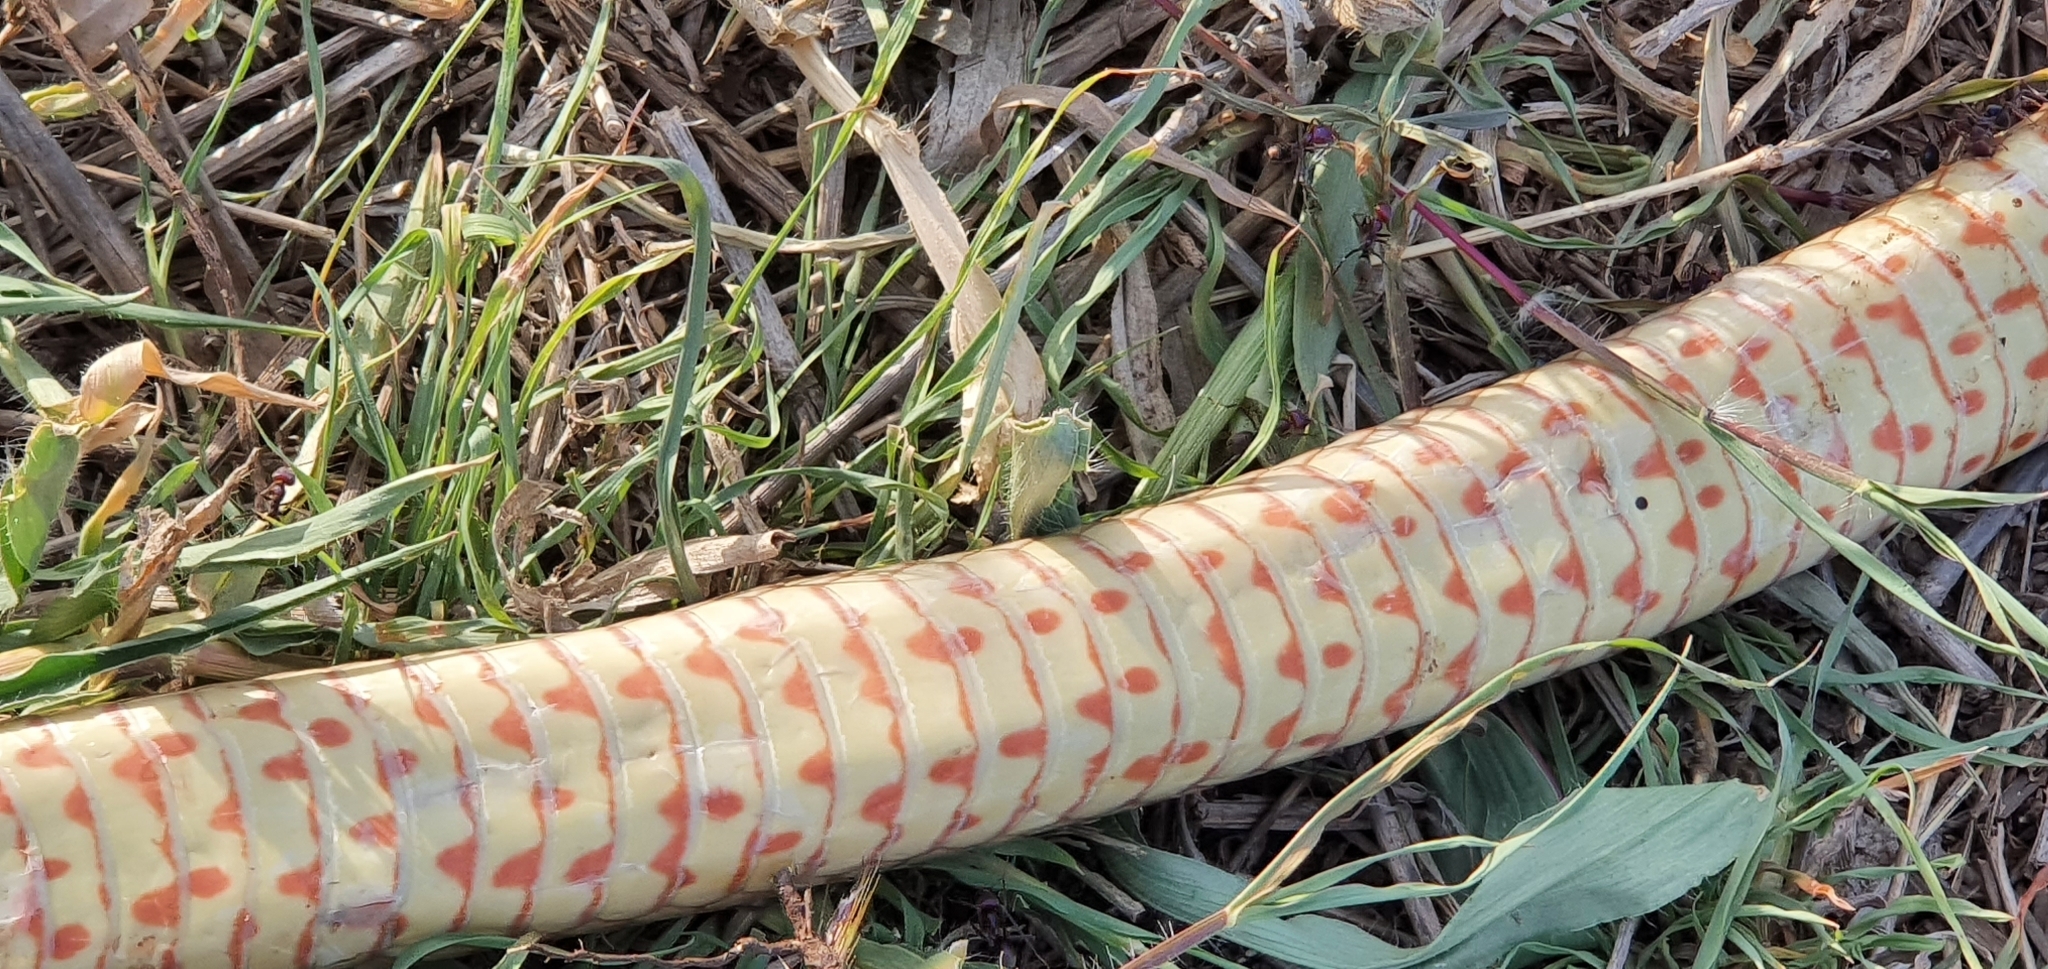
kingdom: Animalia
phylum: Chordata
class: Squamata
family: Elapidae
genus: Pseudonaja
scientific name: Pseudonaja textilis
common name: Eastern brown snake
